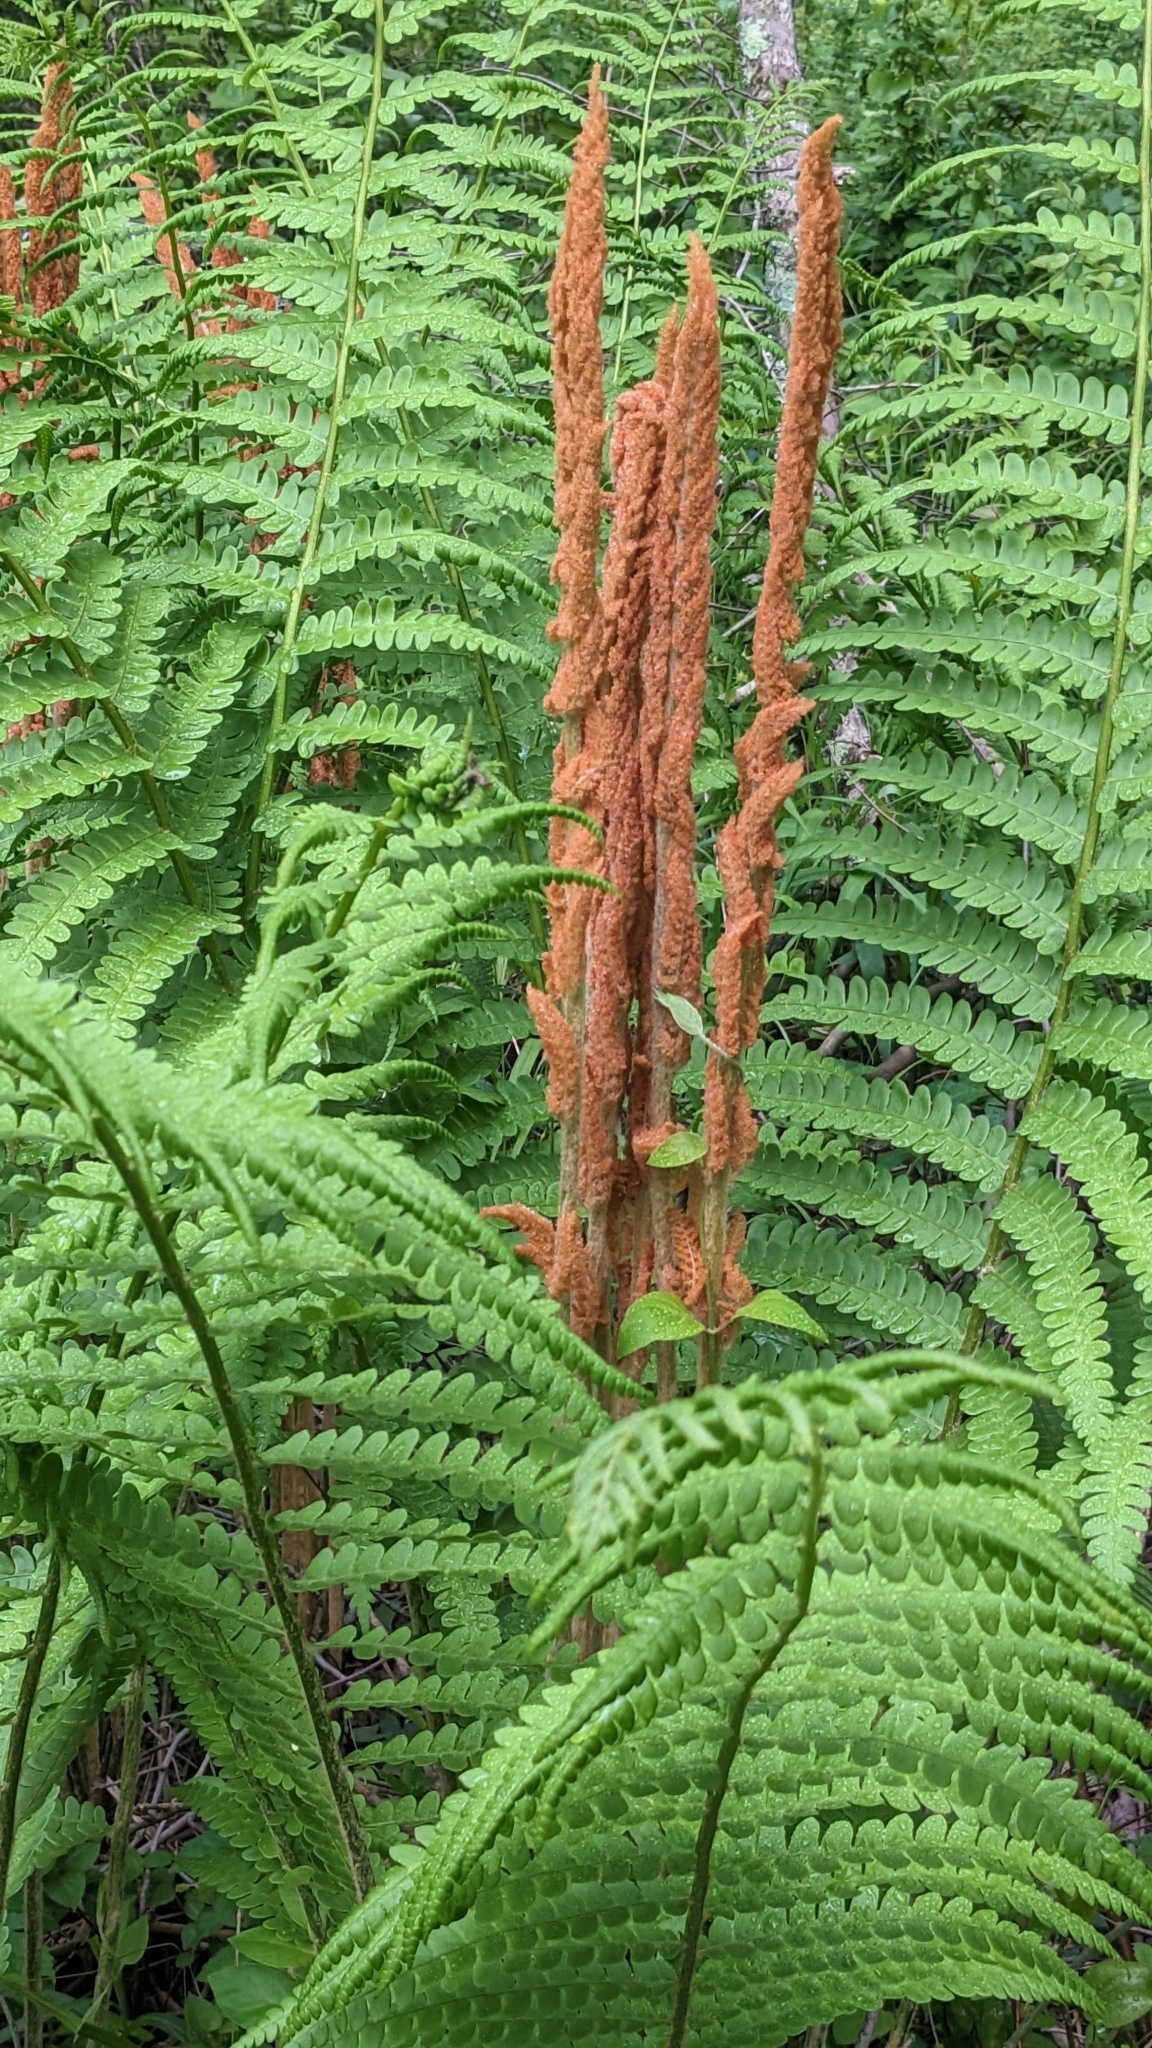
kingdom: Plantae
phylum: Tracheophyta
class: Polypodiopsida
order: Osmundales
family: Osmundaceae
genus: Osmundastrum
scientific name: Osmundastrum cinnamomeum
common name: Cinnamon fern
